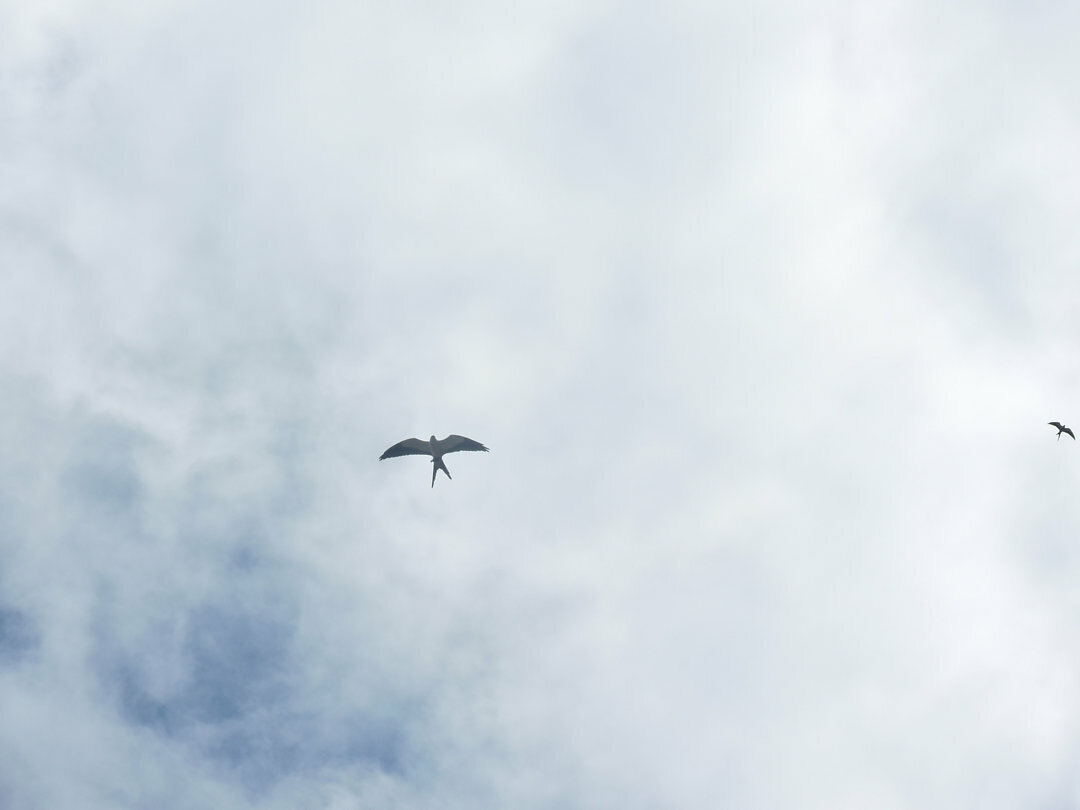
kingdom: Animalia
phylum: Chordata
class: Aves
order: Accipitriformes
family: Accipitridae
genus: Elanoides
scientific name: Elanoides forficatus
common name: Swallow-tailed kite
